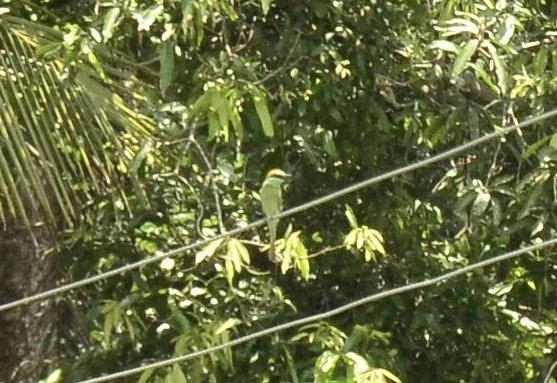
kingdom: Animalia
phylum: Chordata
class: Aves
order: Coraciiformes
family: Meropidae
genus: Merops
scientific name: Merops orientalis
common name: Green bee-eater
